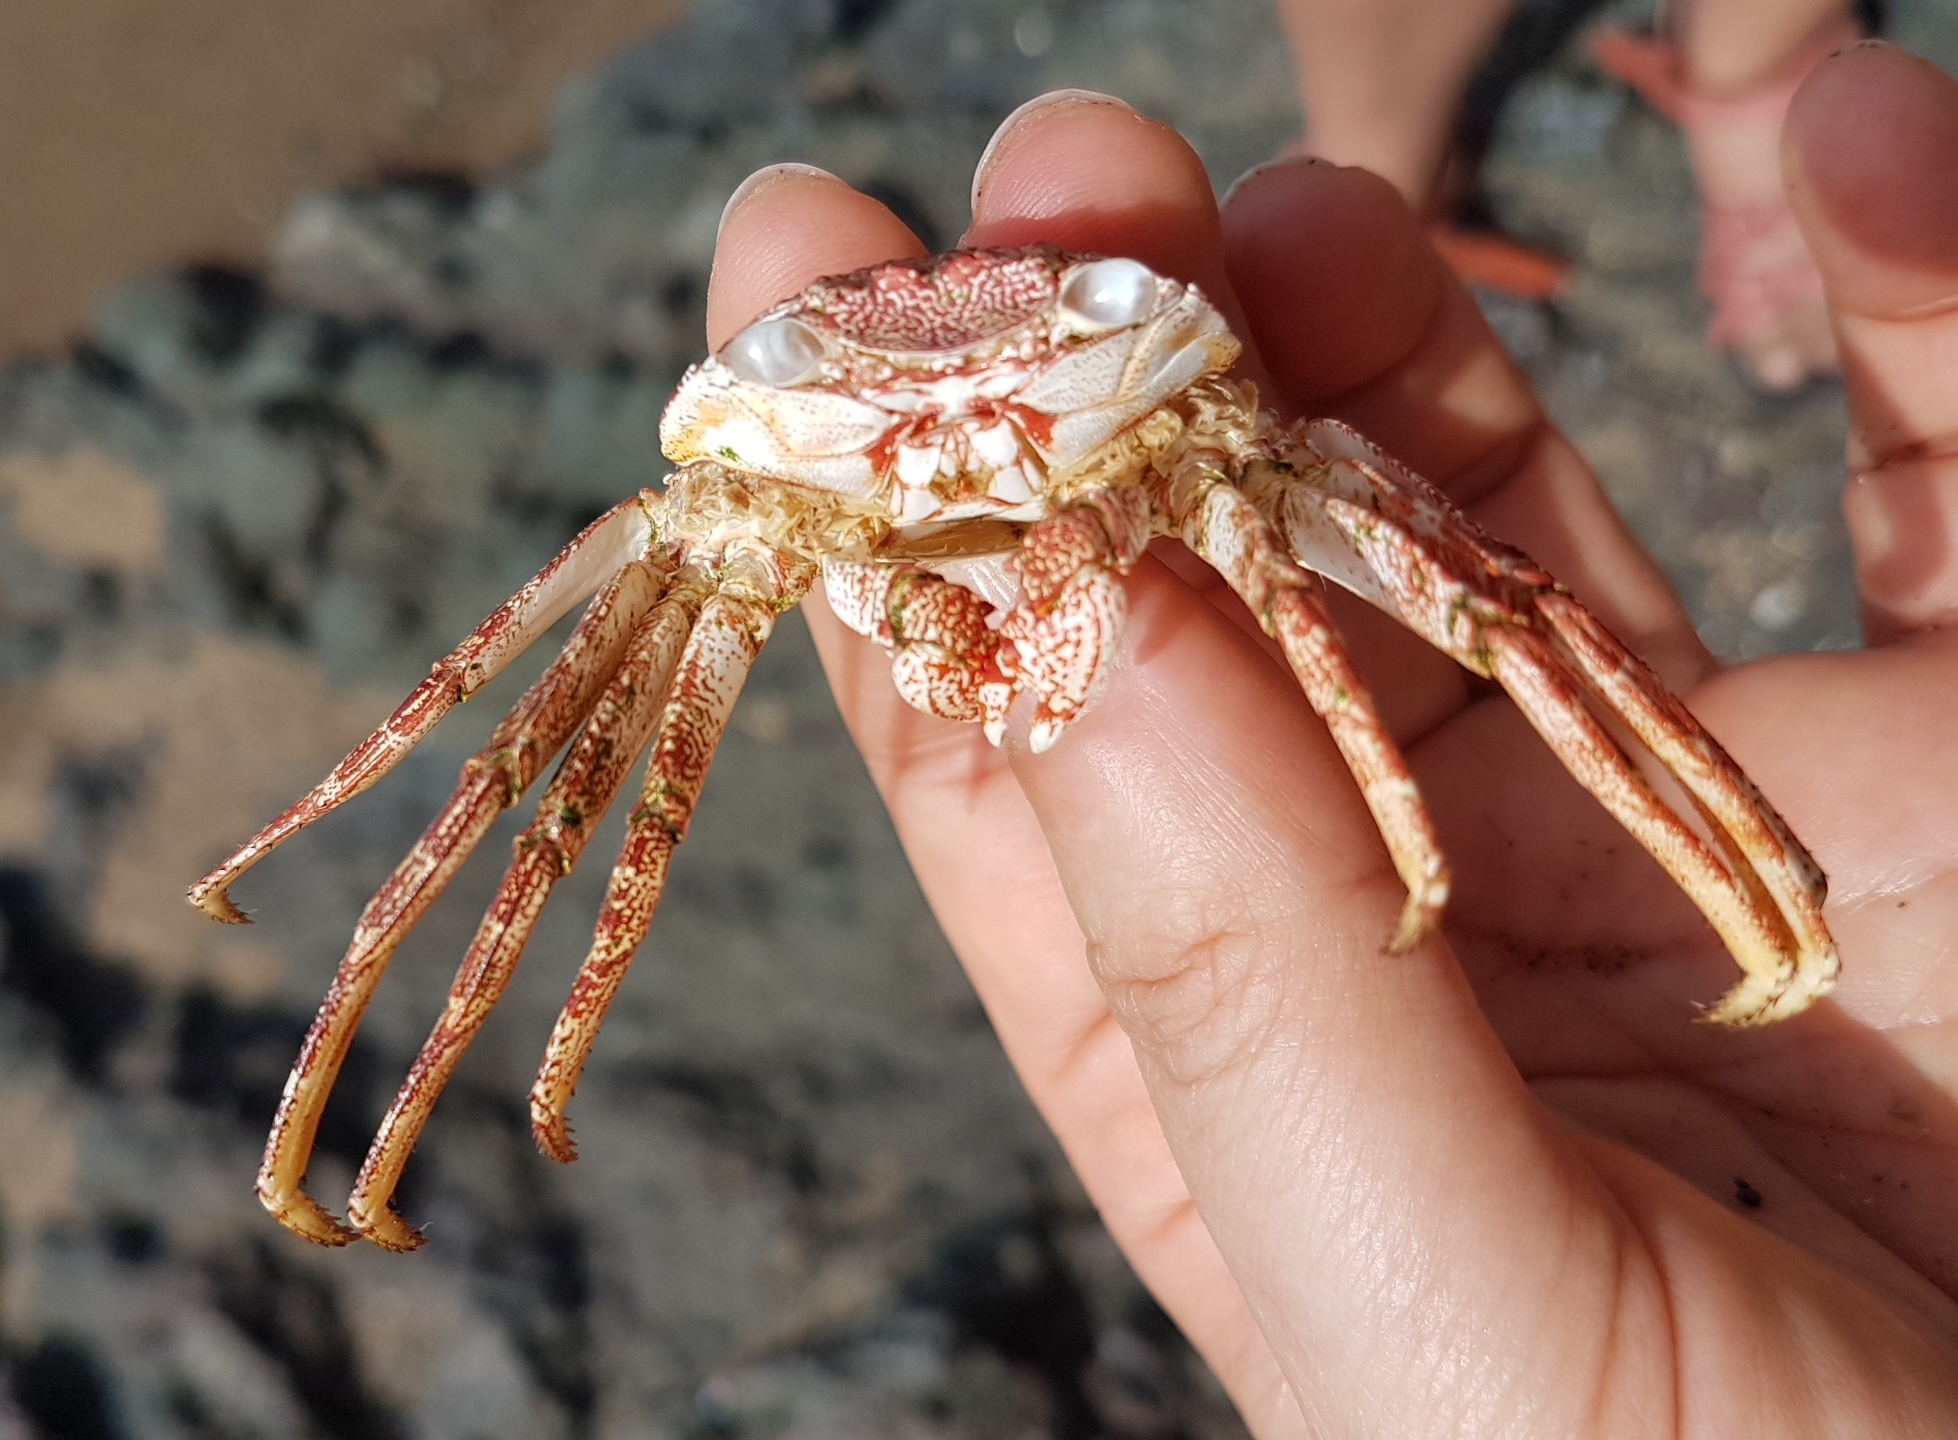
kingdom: Animalia
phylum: Arthropoda
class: Malacostraca
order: Decapoda
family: Grapsidae
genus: Grapsus
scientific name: Grapsus grapsus
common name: Sally lightfoot
